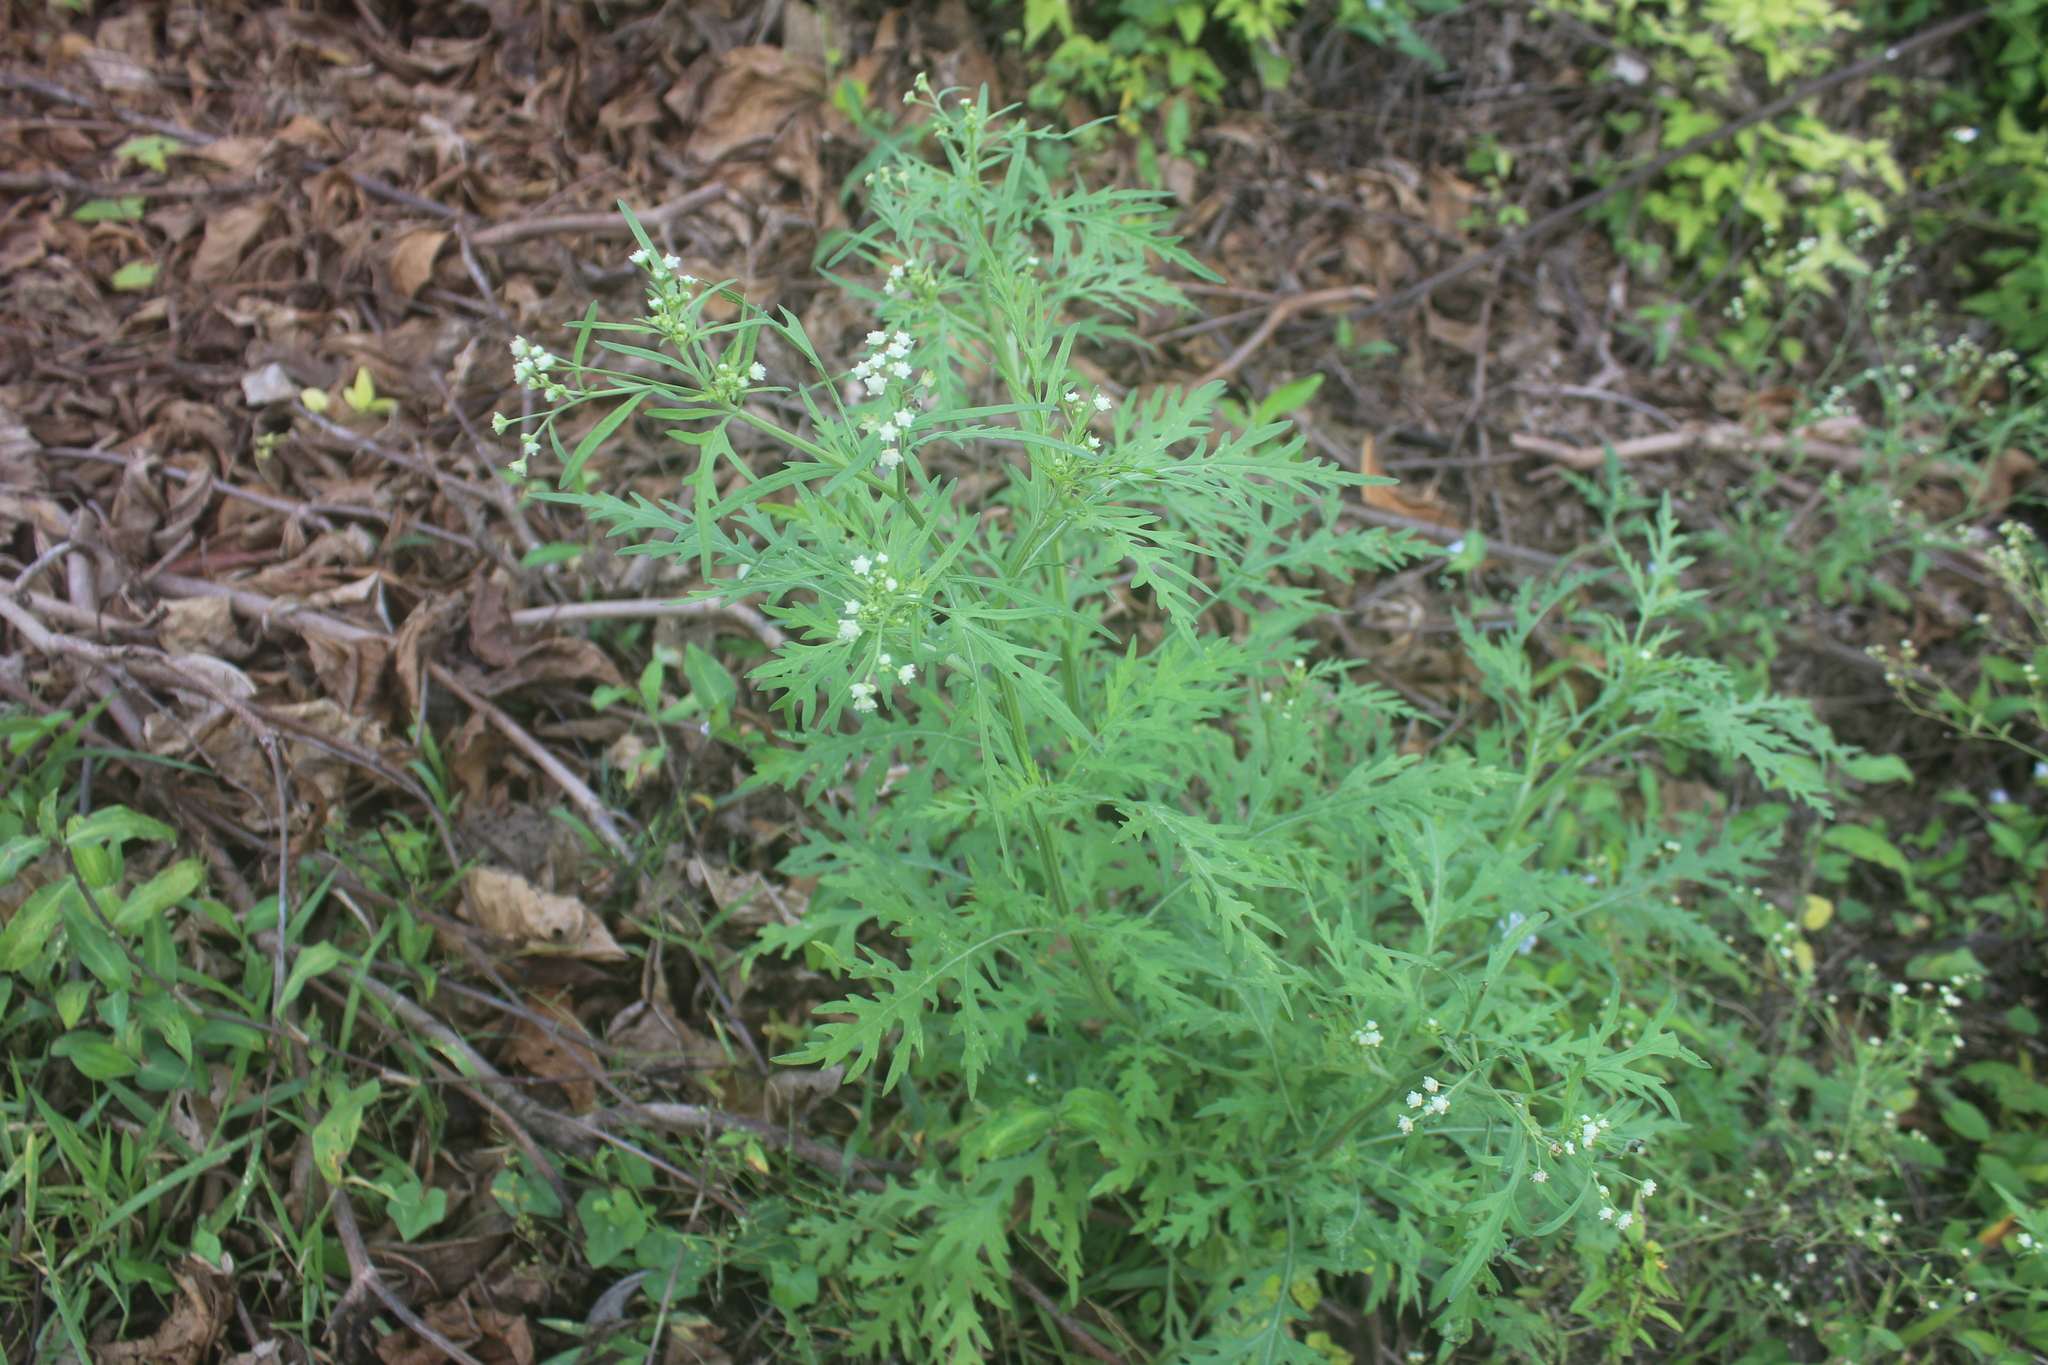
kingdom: Plantae
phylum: Tracheophyta
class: Magnoliopsida
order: Asterales
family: Asteraceae
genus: Parthenium
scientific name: Parthenium hysterophorus
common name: Santa maria feverfew
